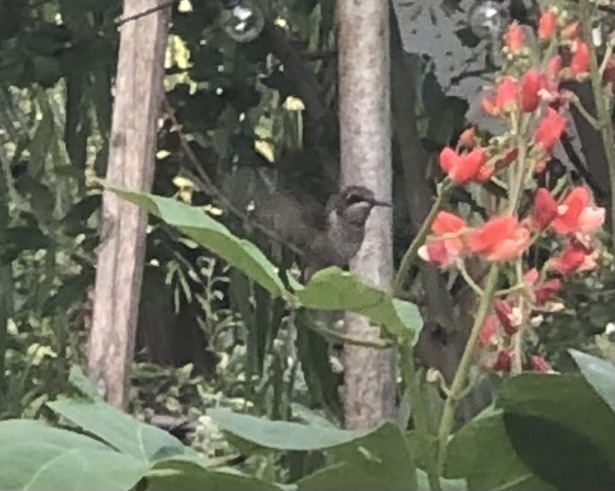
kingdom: Animalia
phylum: Chordata
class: Aves
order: Apodiformes
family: Trochilidae
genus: Archilochus
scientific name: Archilochus colubris
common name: Ruby-throated hummingbird
